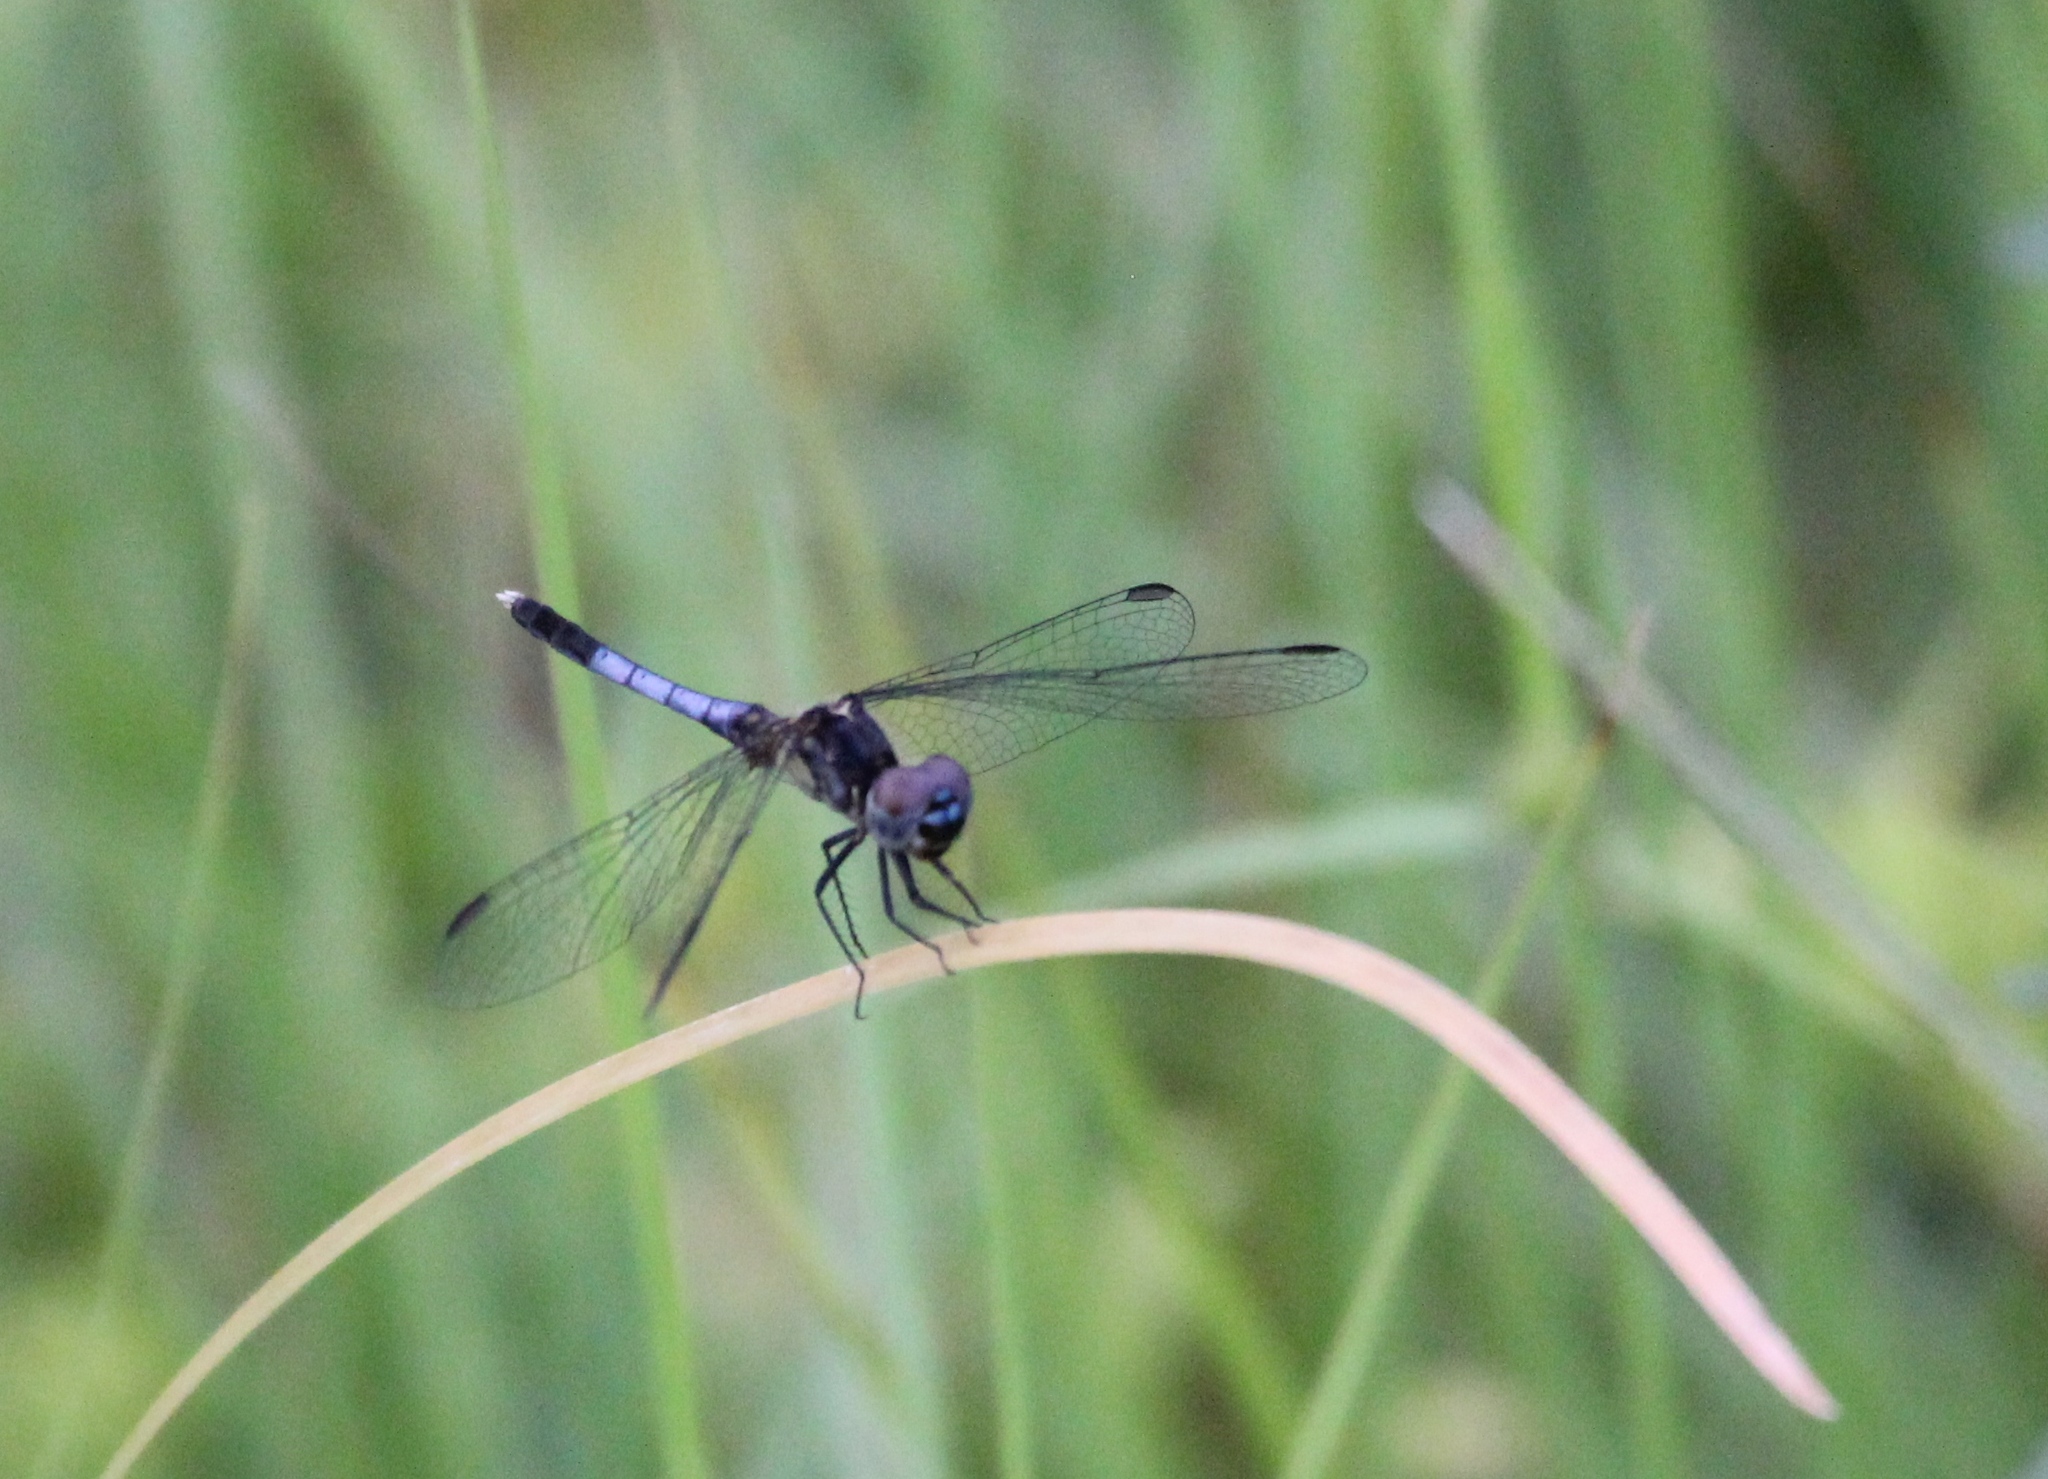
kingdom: Animalia
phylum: Arthropoda
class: Insecta
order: Odonata
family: Libellulidae
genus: Erythrodiplax
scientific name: Erythrodiplax minuscula
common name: Little blue dragonlet
